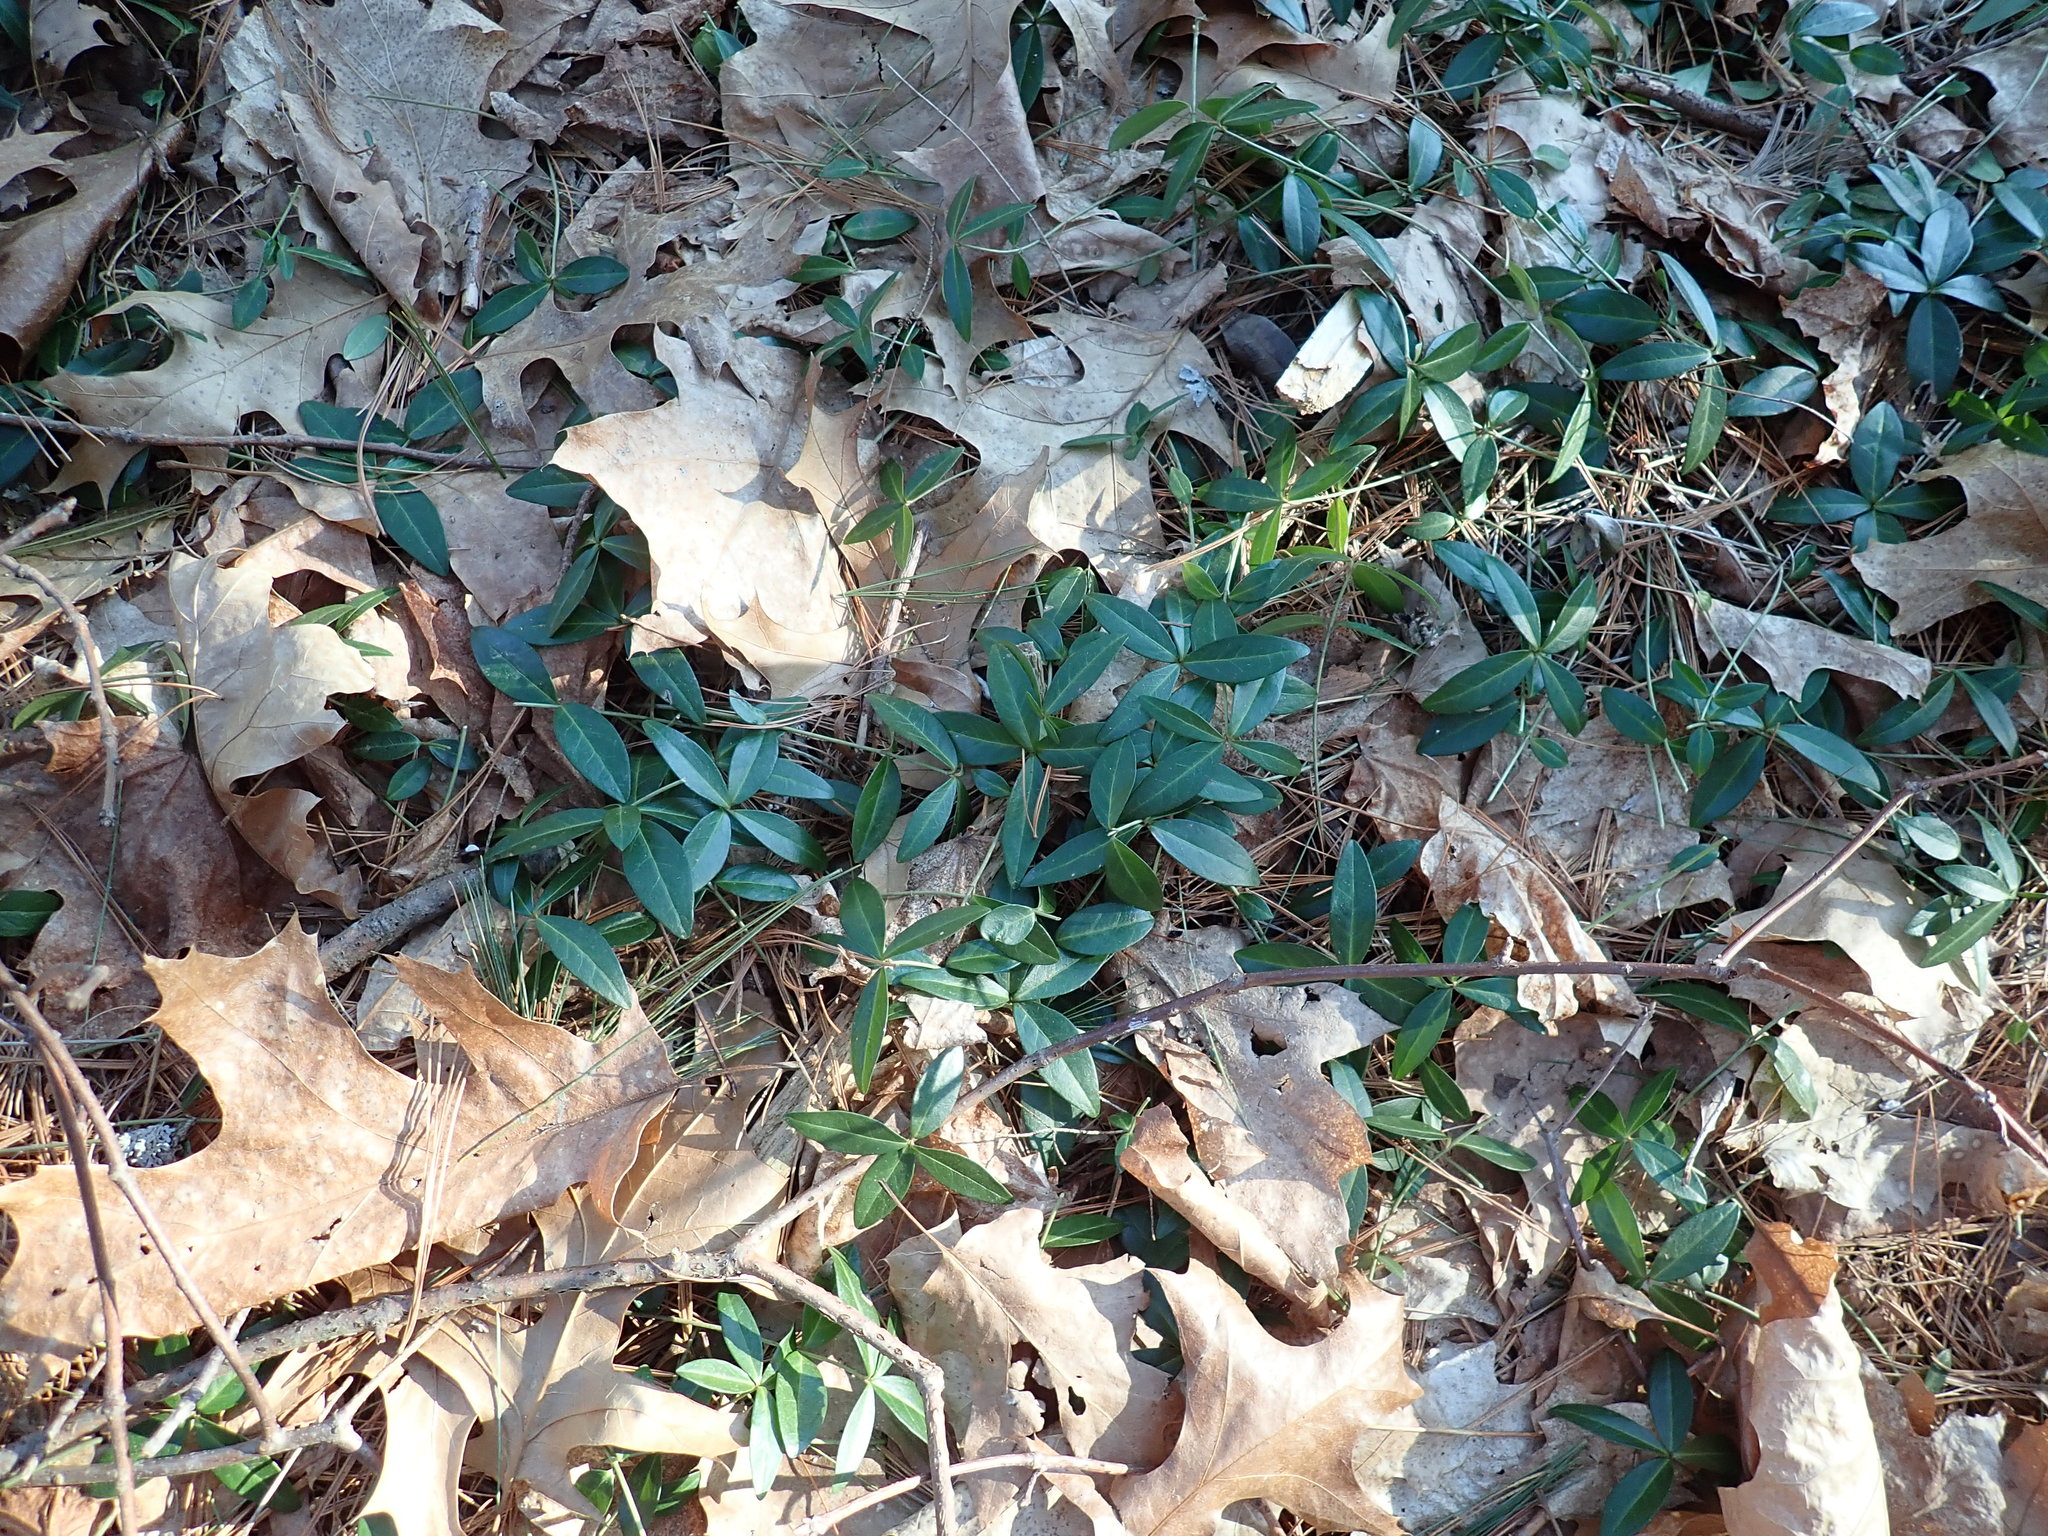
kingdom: Plantae
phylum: Tracheophyta
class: Magnoliopsida
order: Gentianales
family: Apocynaceae
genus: Vinca
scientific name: Vinca minor
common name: Lesser periwinkle
